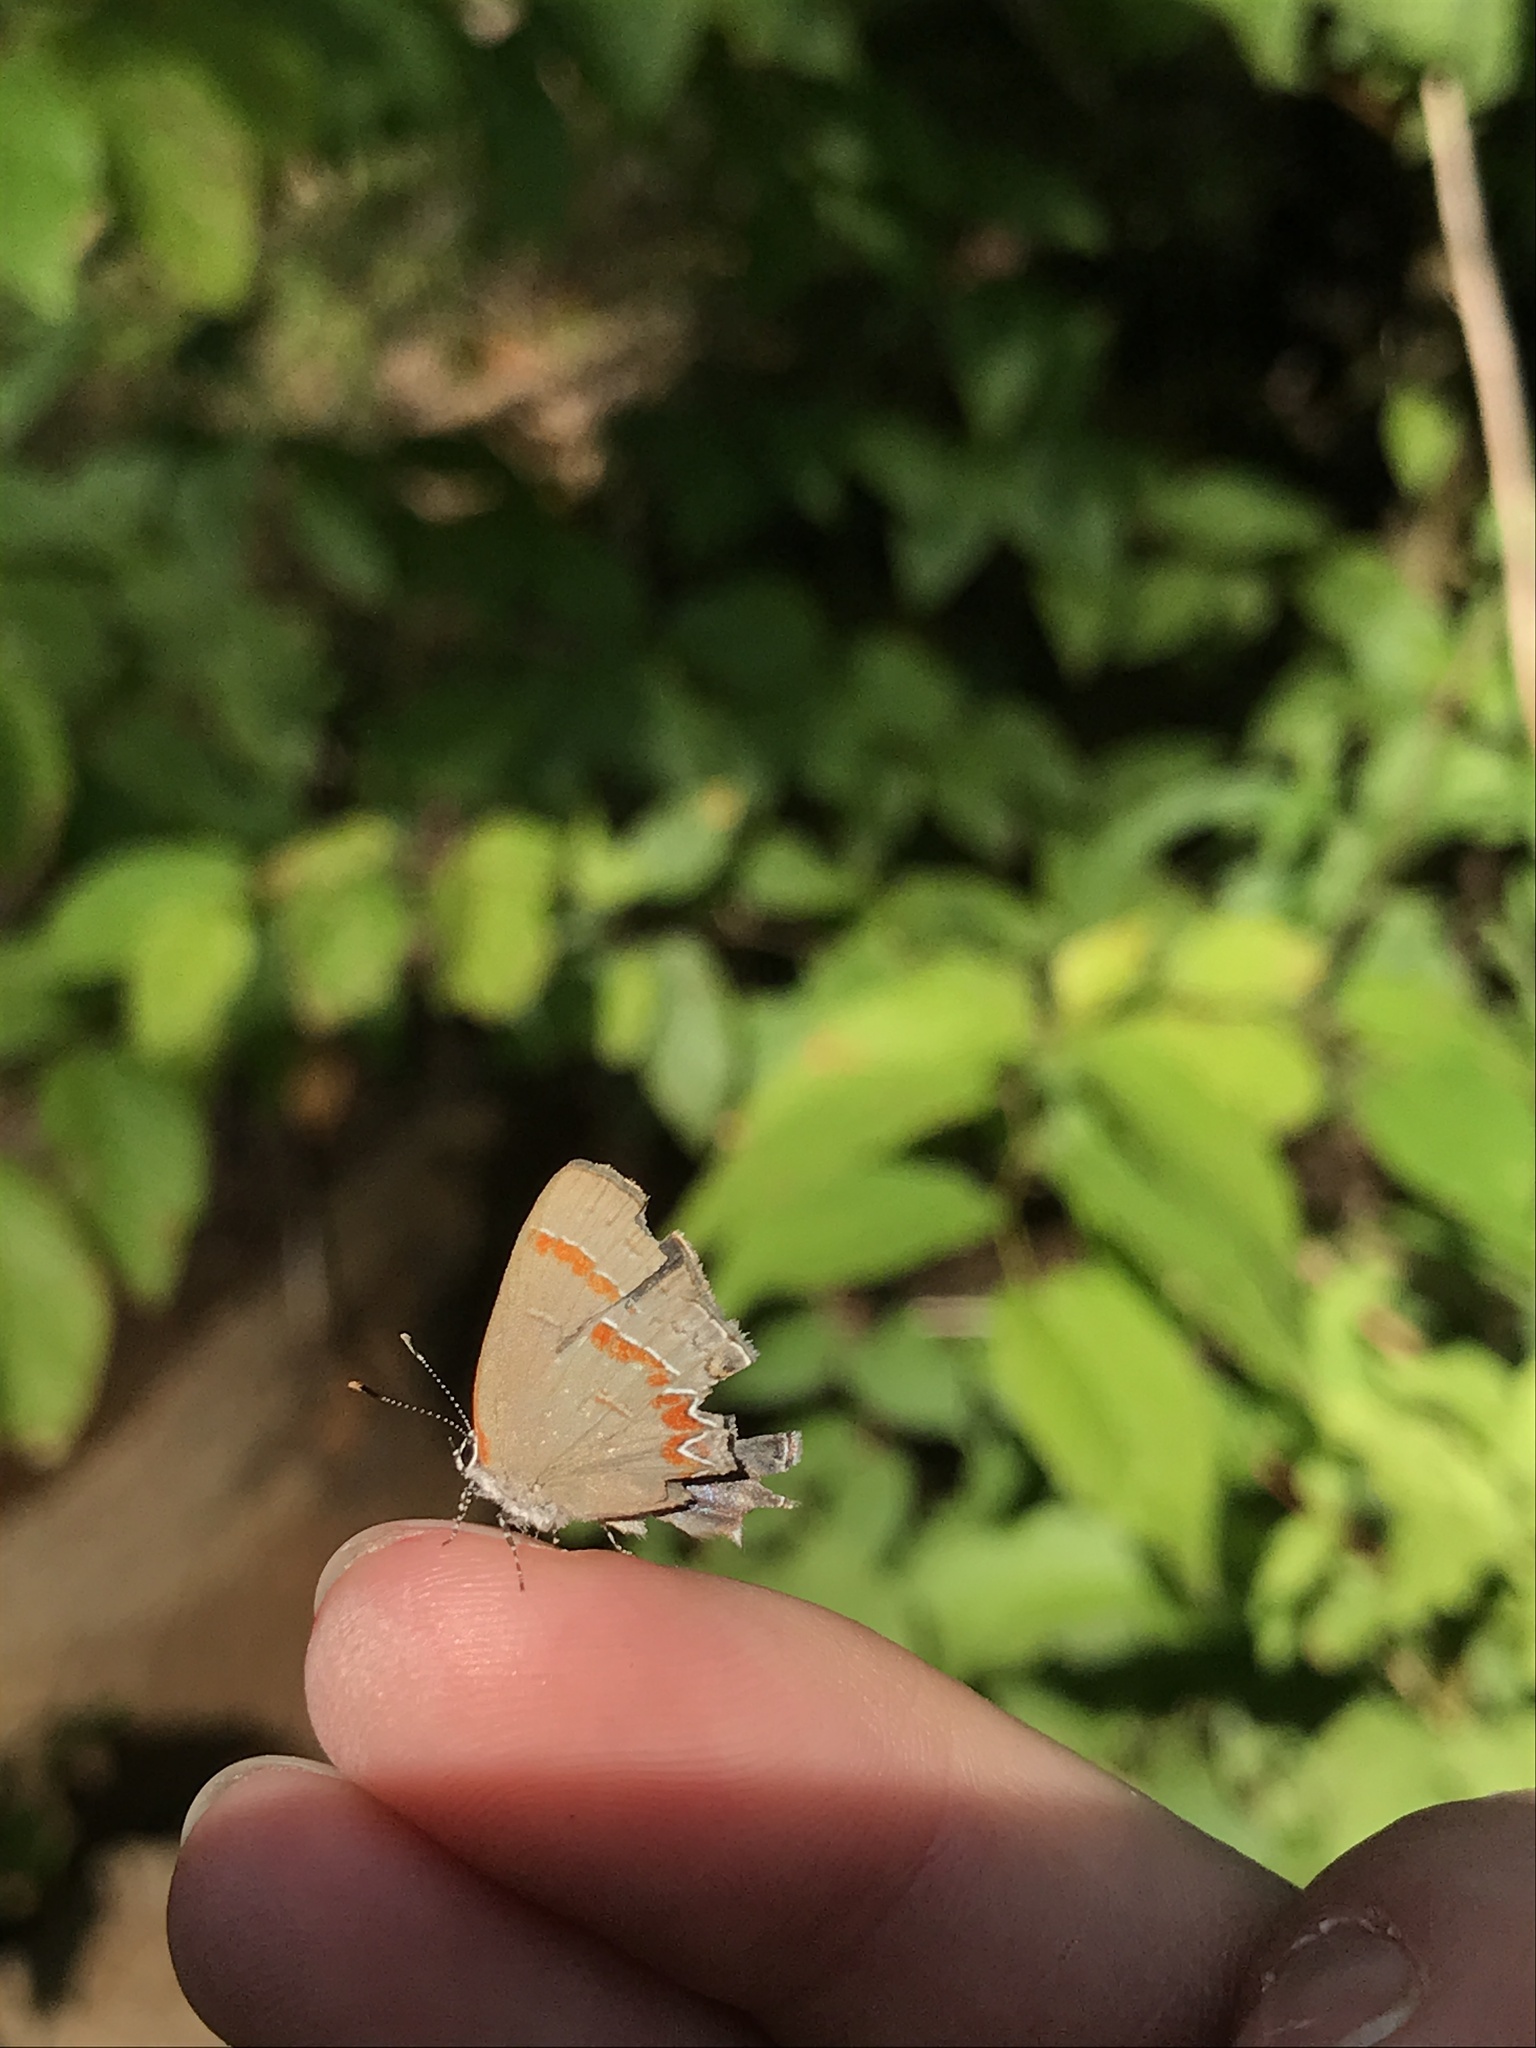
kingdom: Animalia
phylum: Arthropoda
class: Insecta
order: Lepidoptera
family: Lycaenidae
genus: Calycopis
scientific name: Calycopis cecrops
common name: Red-banded hairstreak
